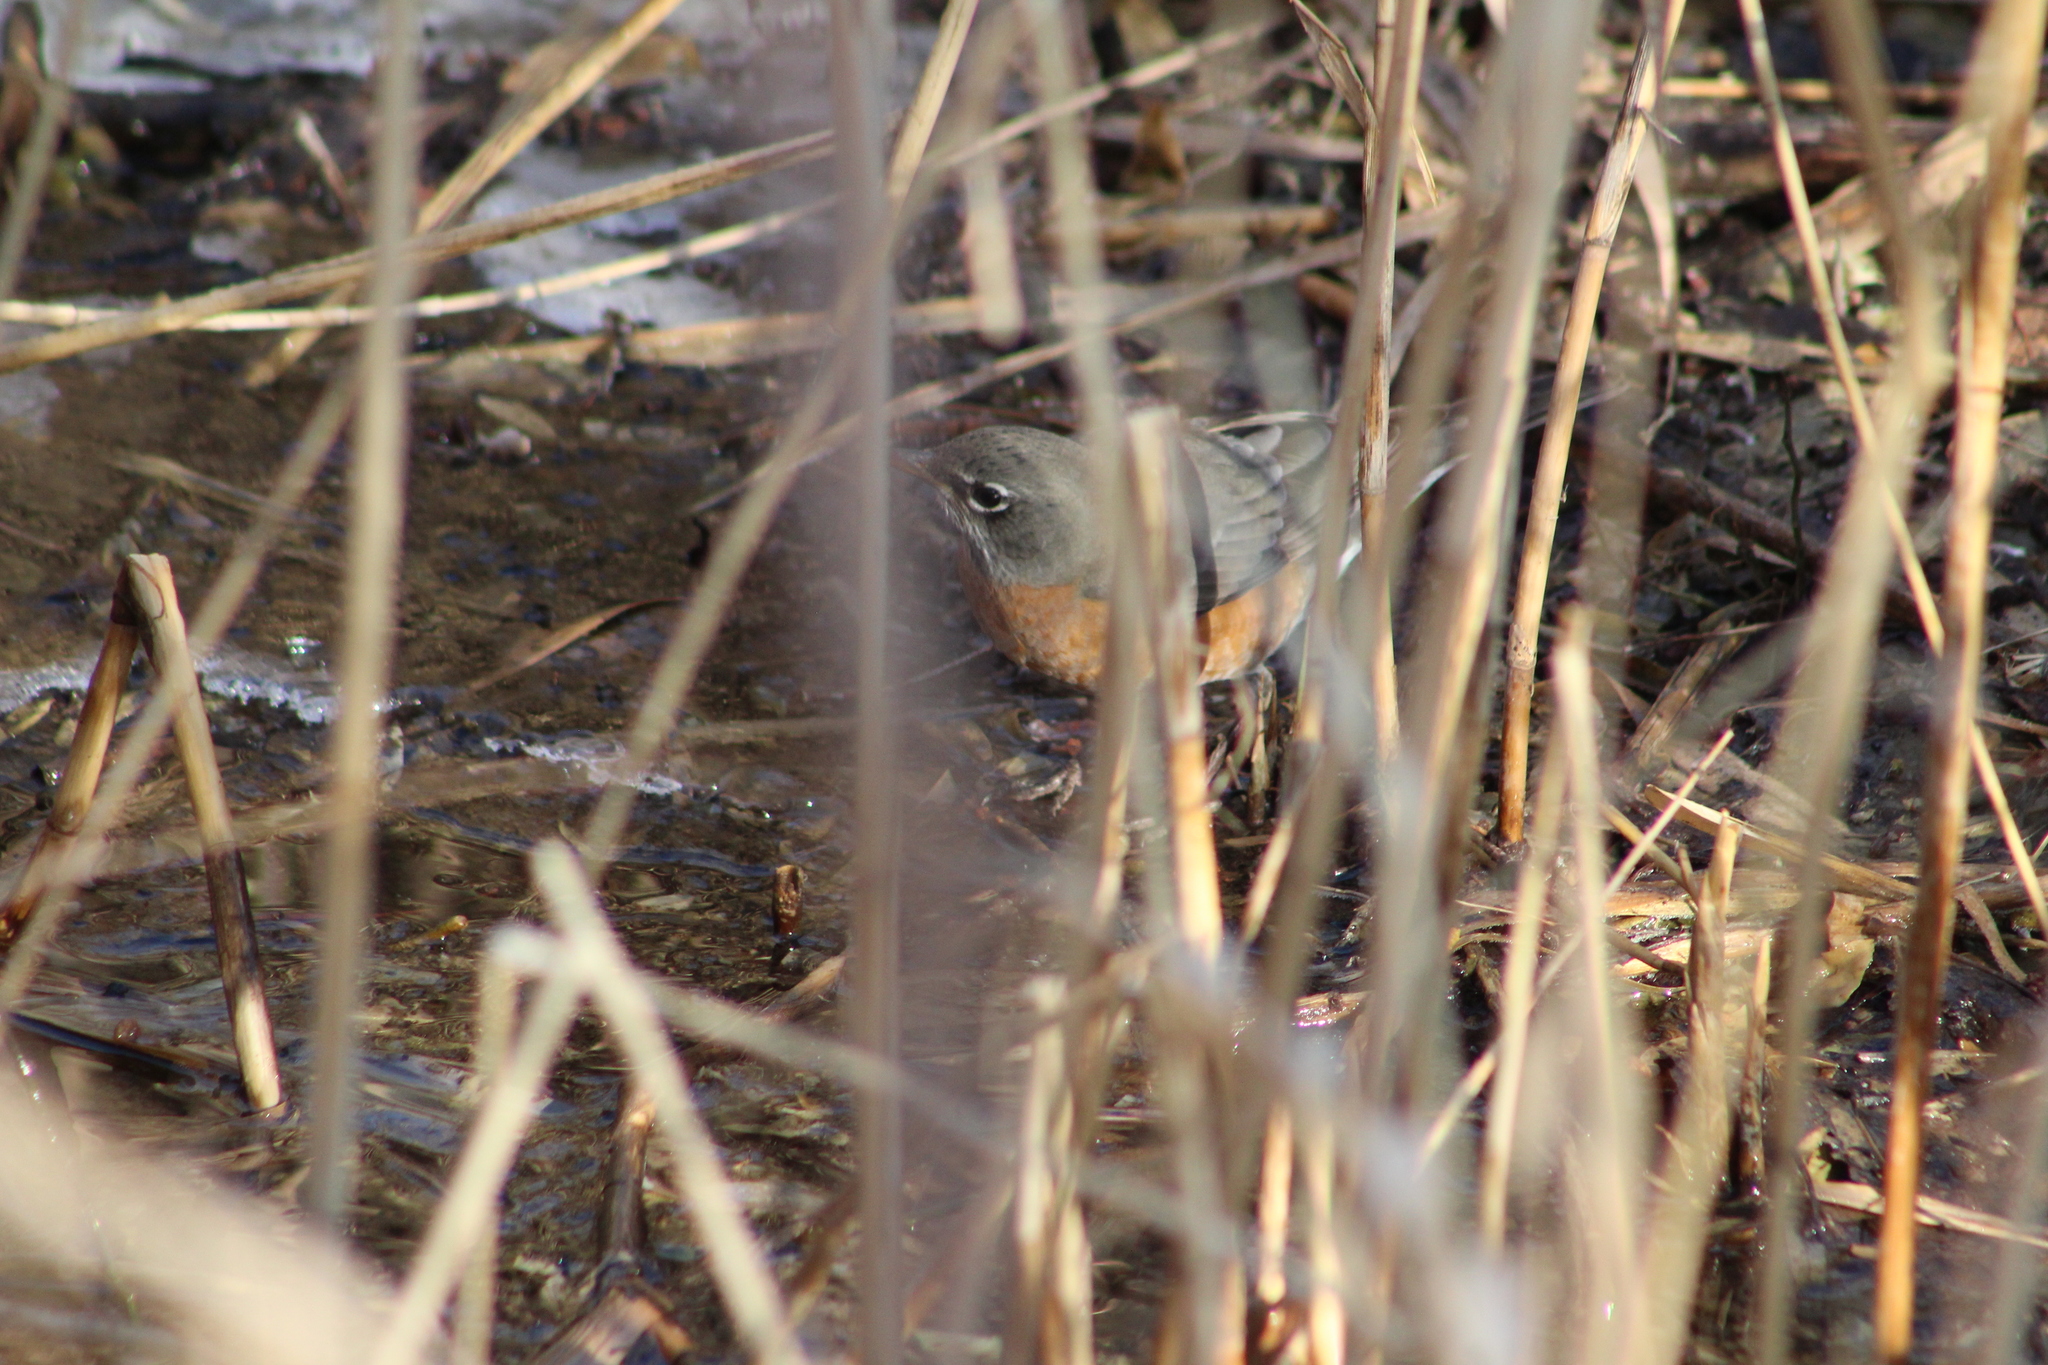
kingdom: Animalia
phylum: Chordata
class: Aves
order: Passeriformes
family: Turdidae
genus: Turdus
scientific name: Turdus migratorius
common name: American robin
